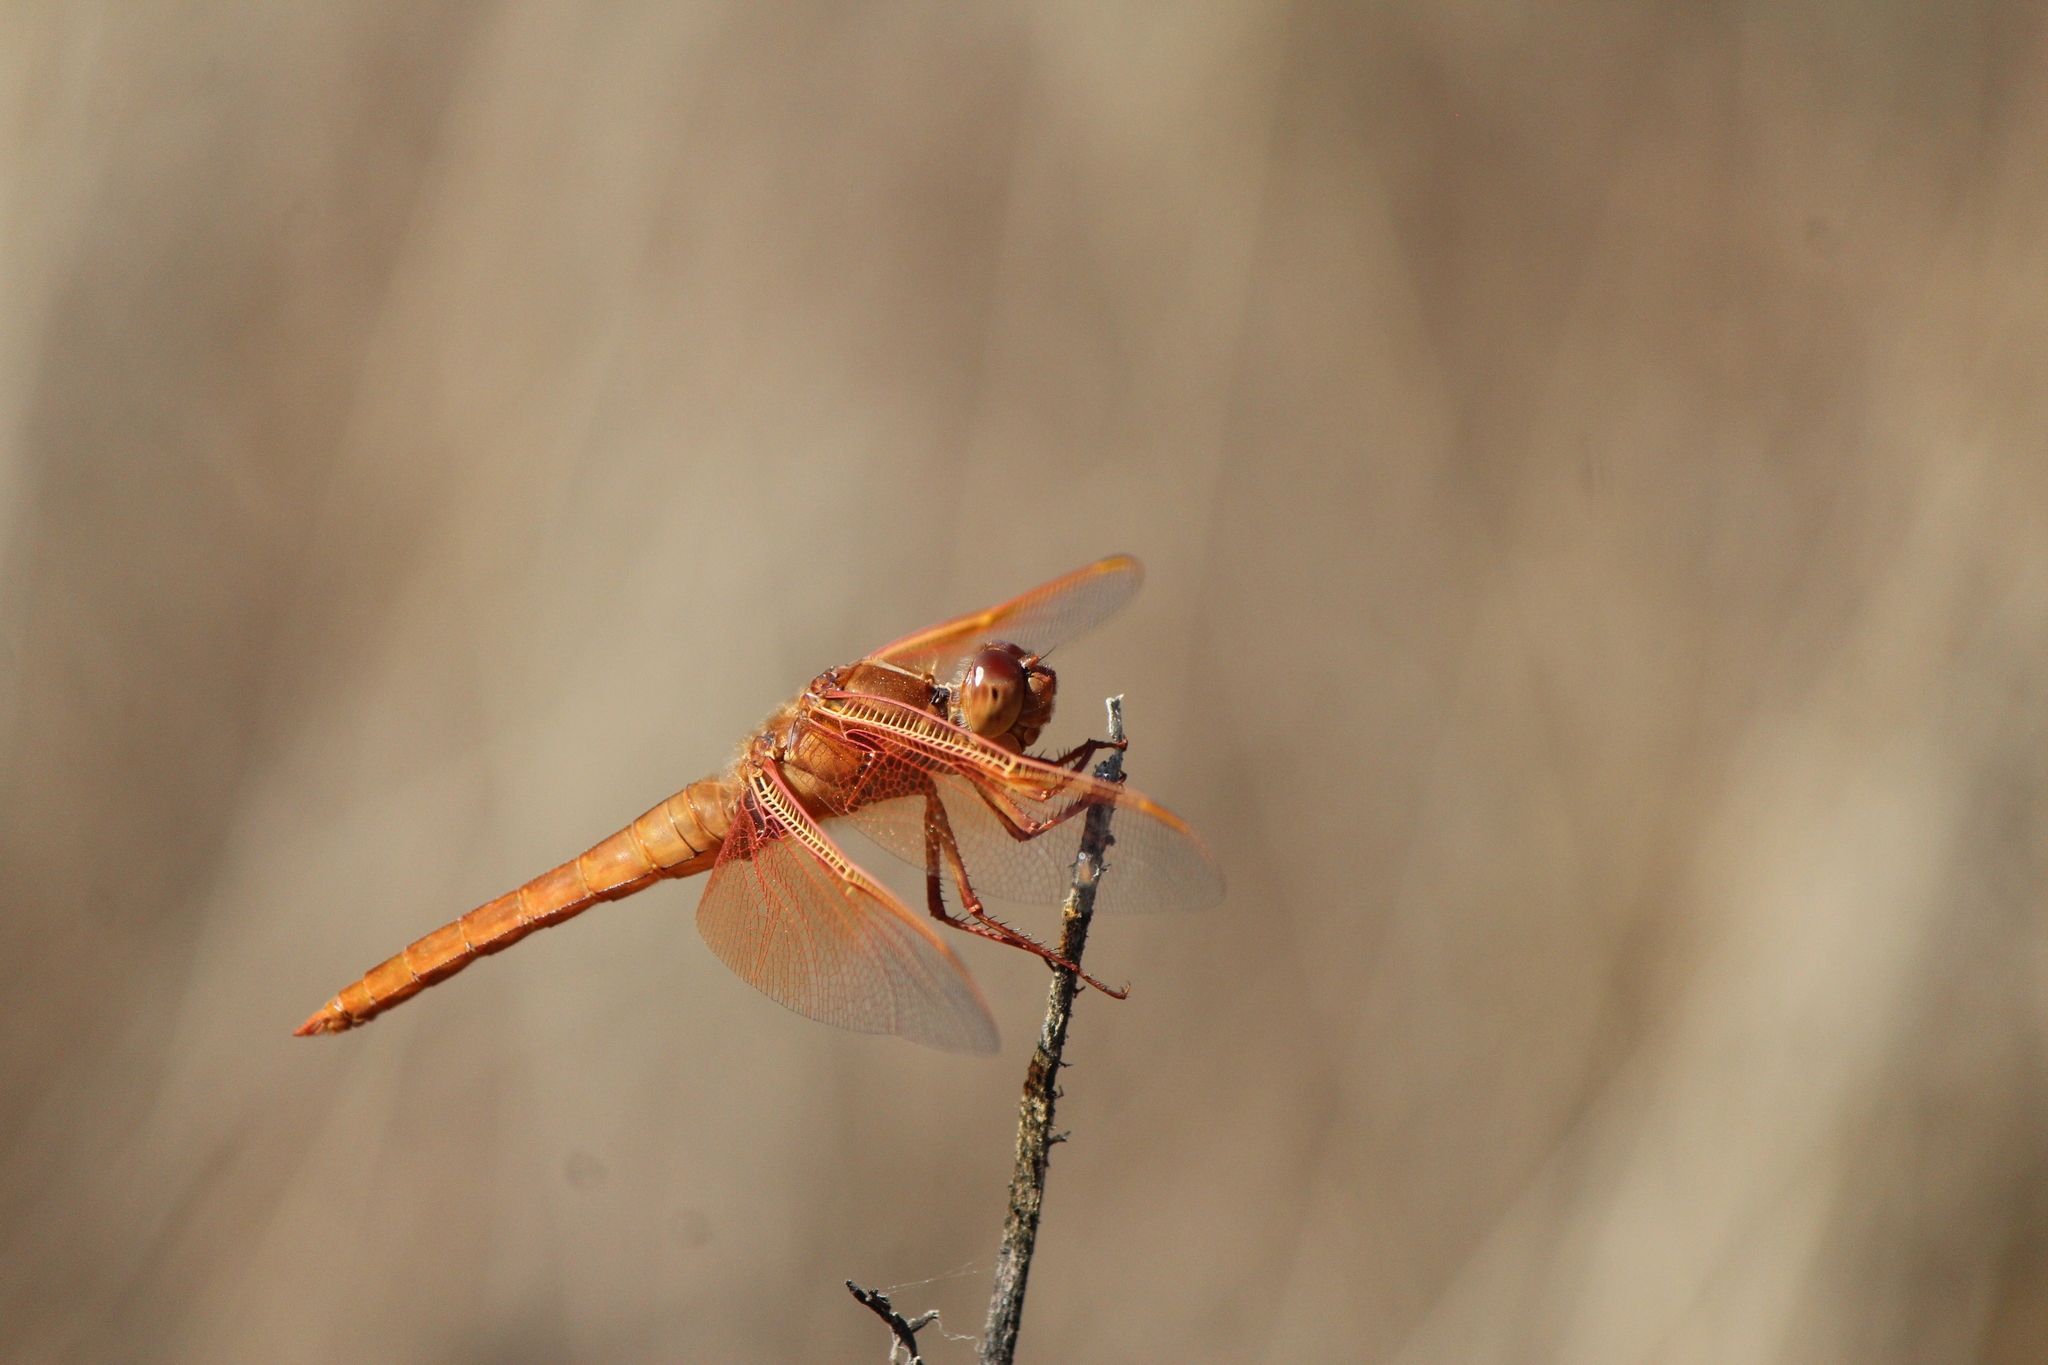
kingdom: Animalia
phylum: Arthropoda
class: Insecta
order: Odonata
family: Libellulidae
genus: Libellula
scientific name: Libellula saturata
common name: Flame skimmer
